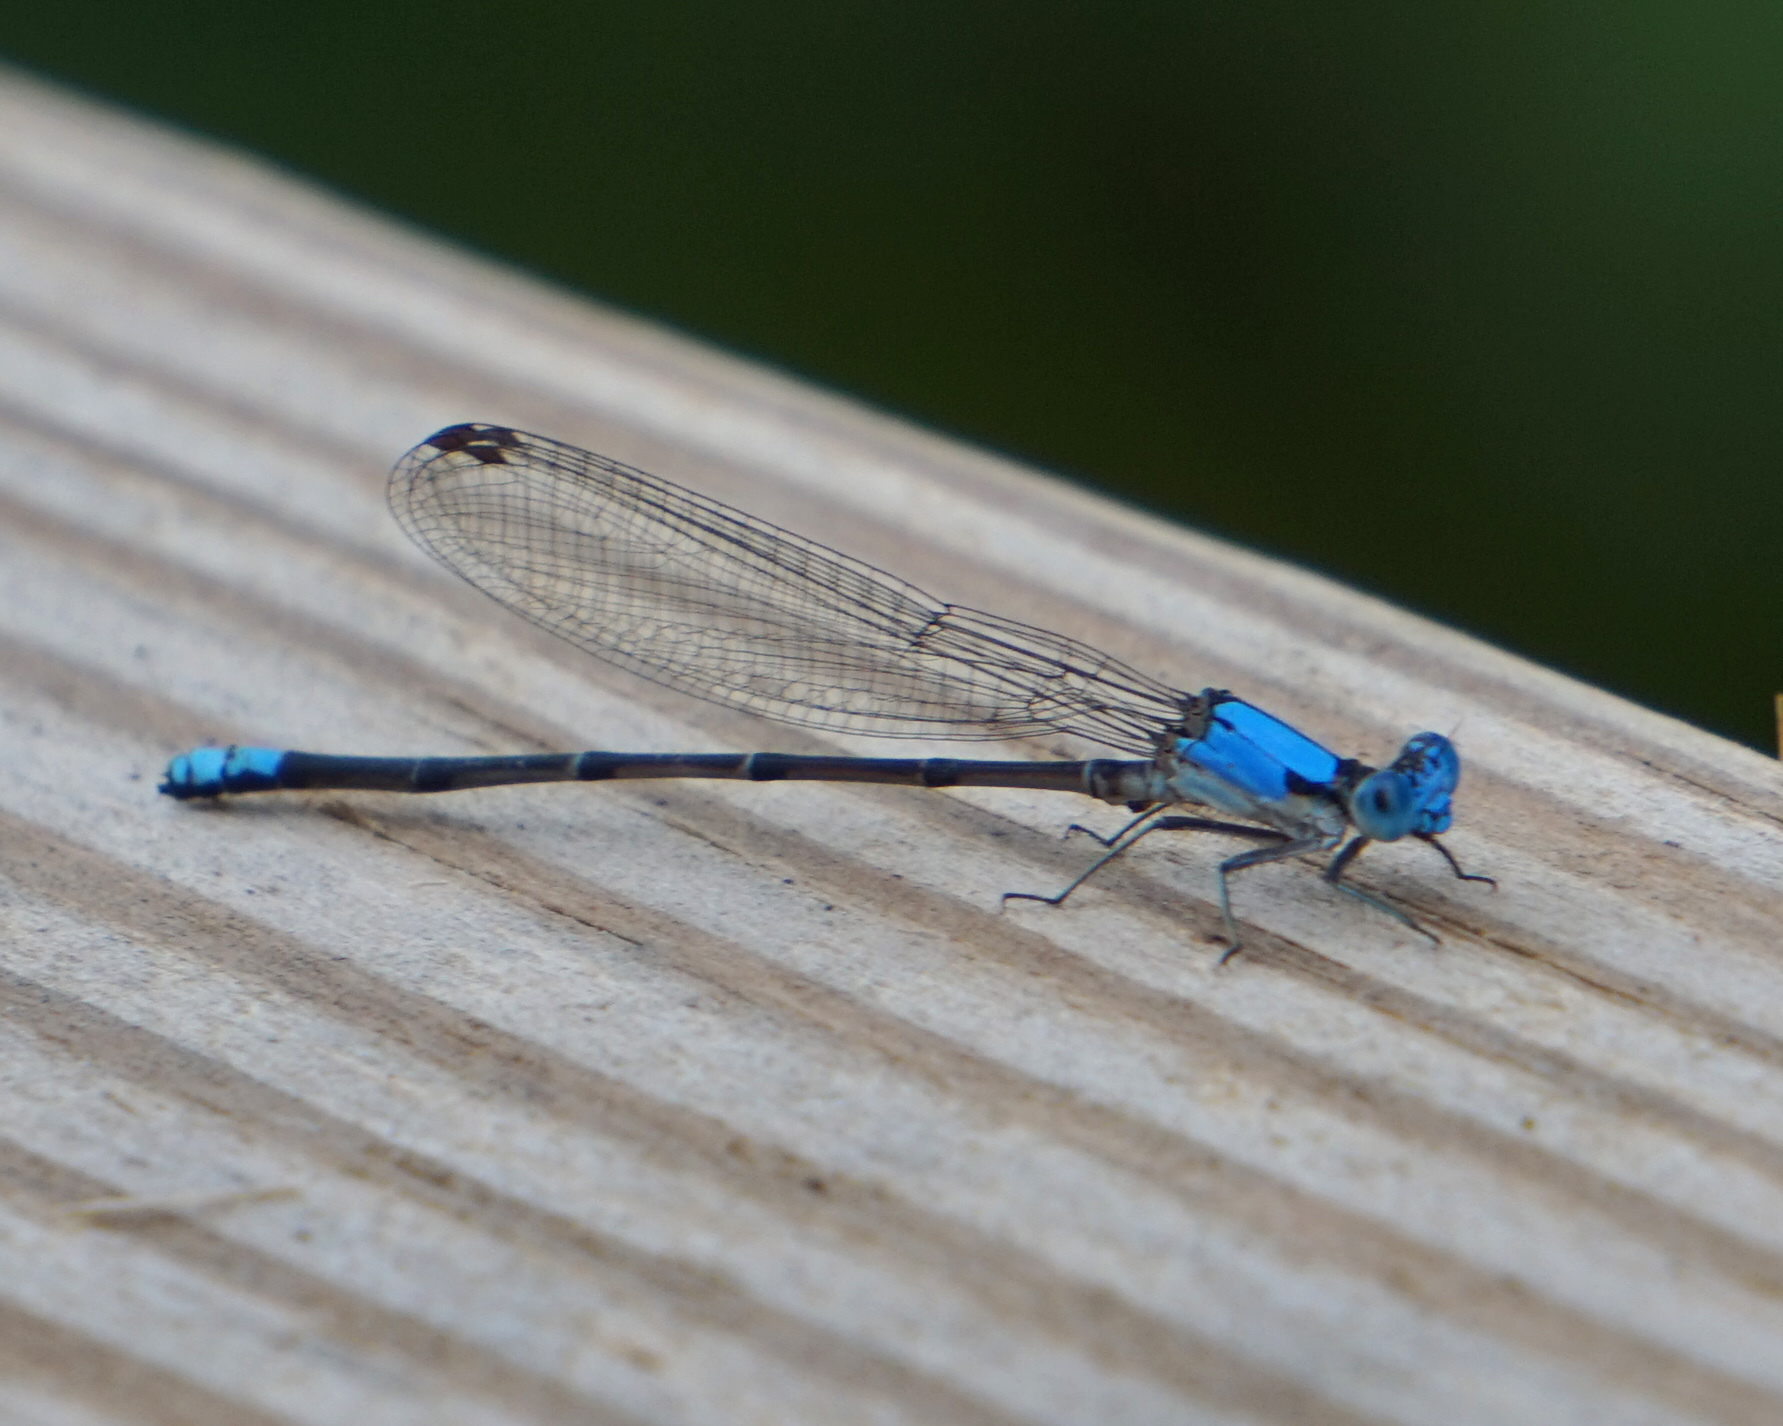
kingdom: Animalia
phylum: Arthropoda
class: Insecta
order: Odonata
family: Coenagrionidae
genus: Argia
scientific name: Argia apicalis
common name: Blue-fronted dancer
